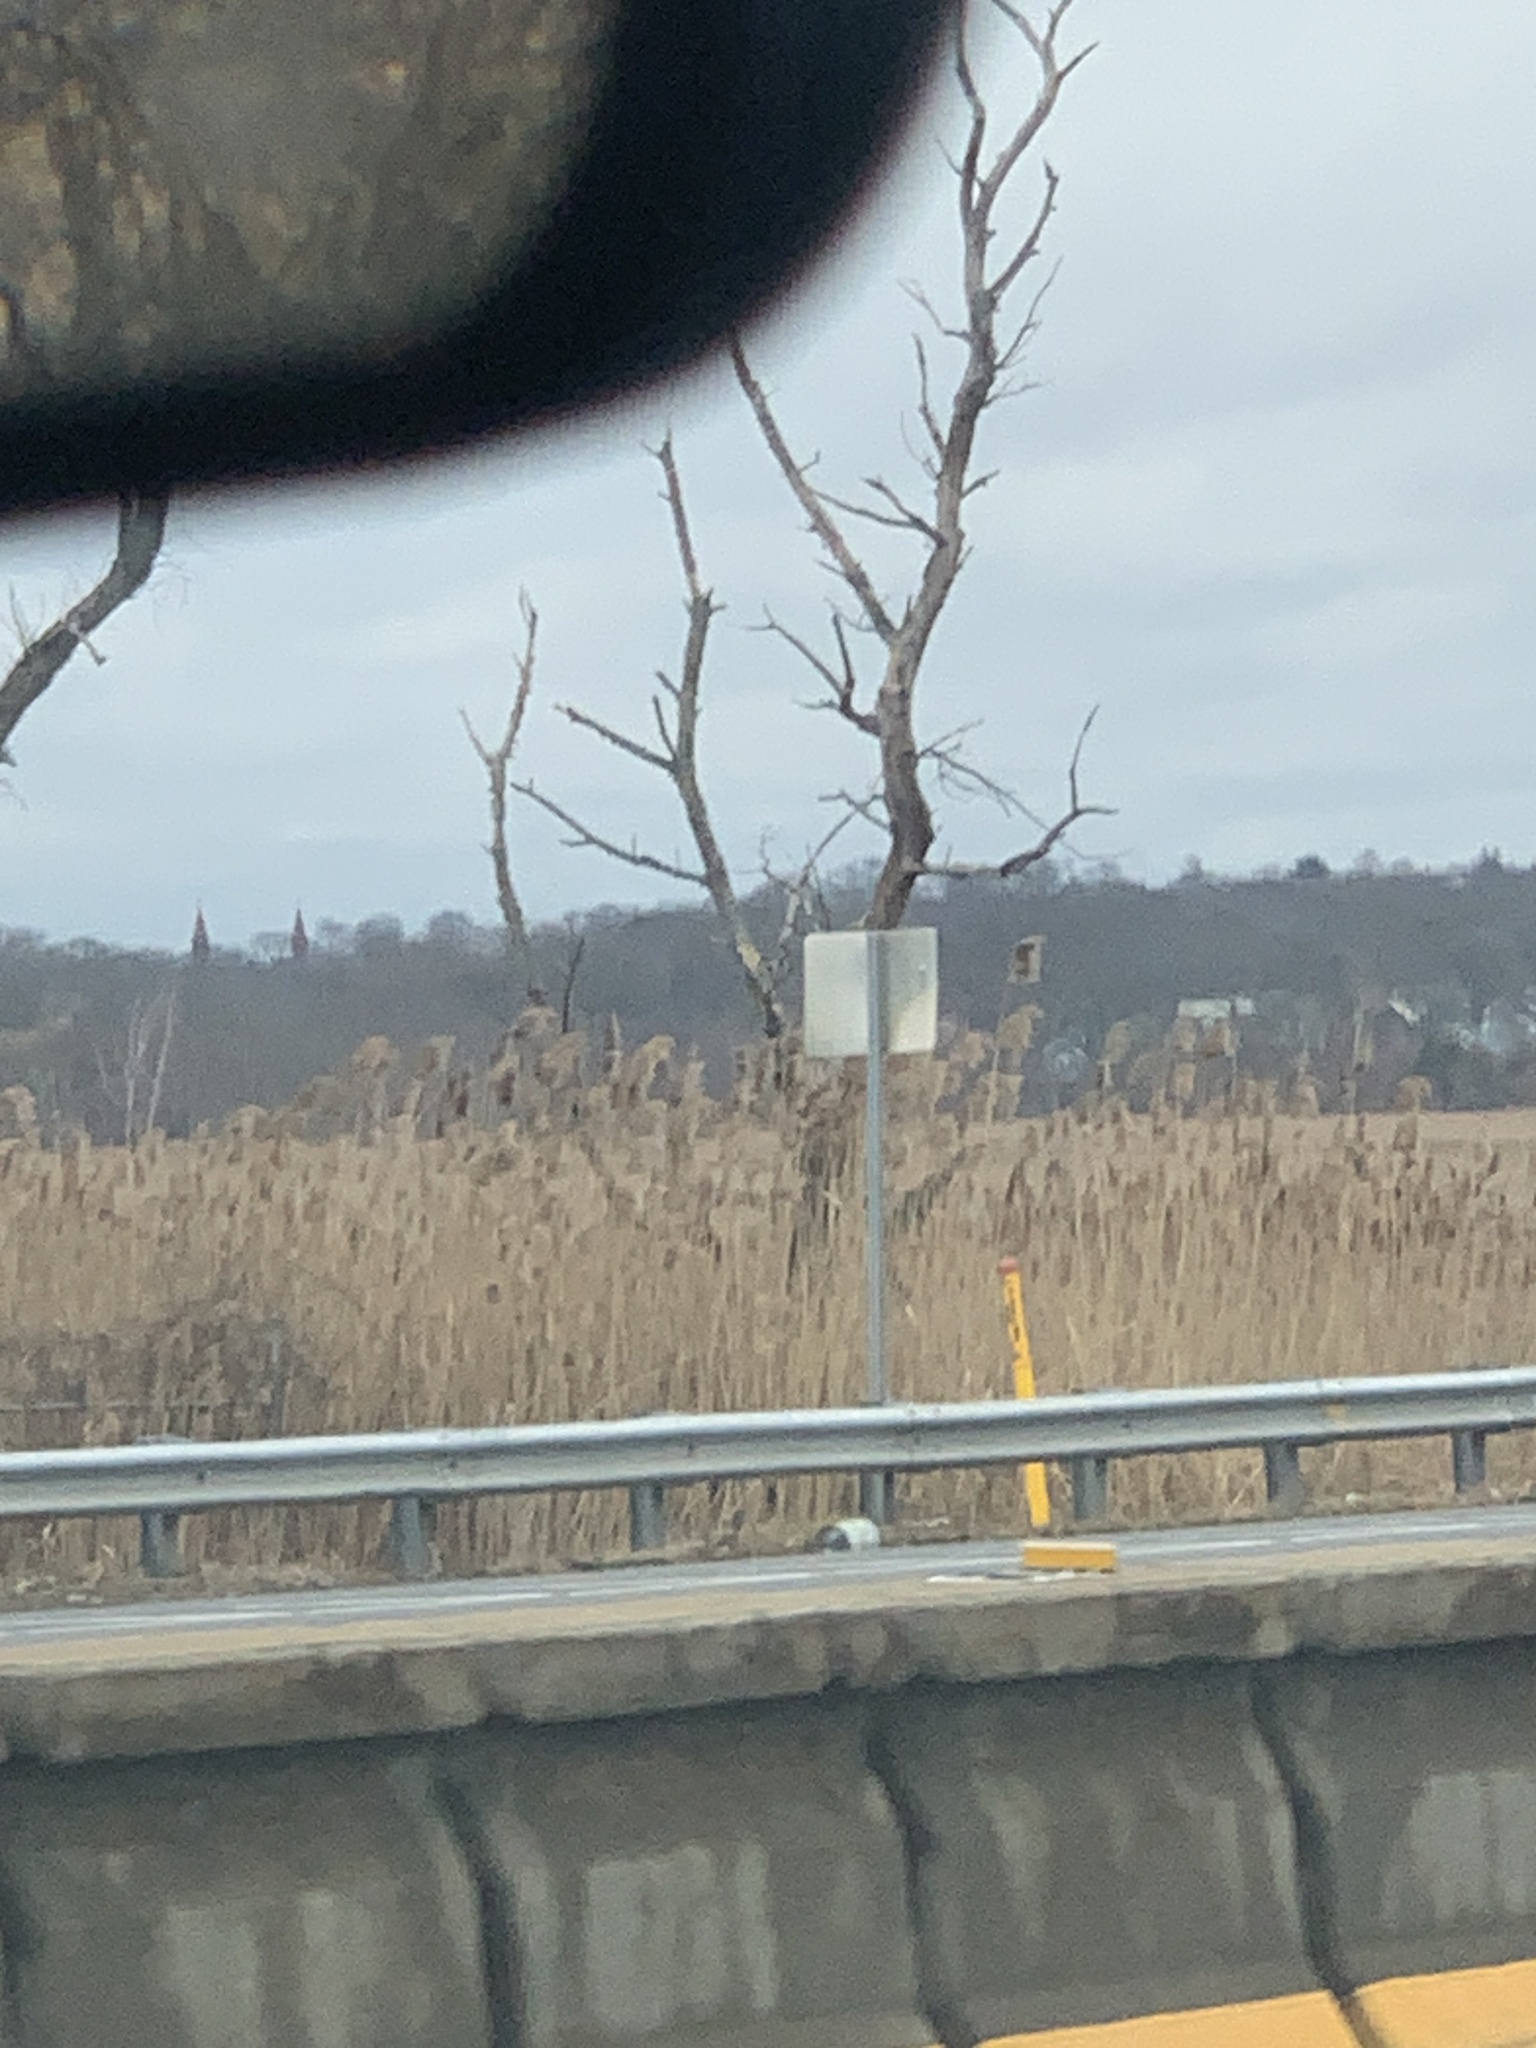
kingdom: Plantae
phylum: Tracheophyta
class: Liliopsida
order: Poales
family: Poaceae
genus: Phragmites
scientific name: Phragmites australis
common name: Common reed
